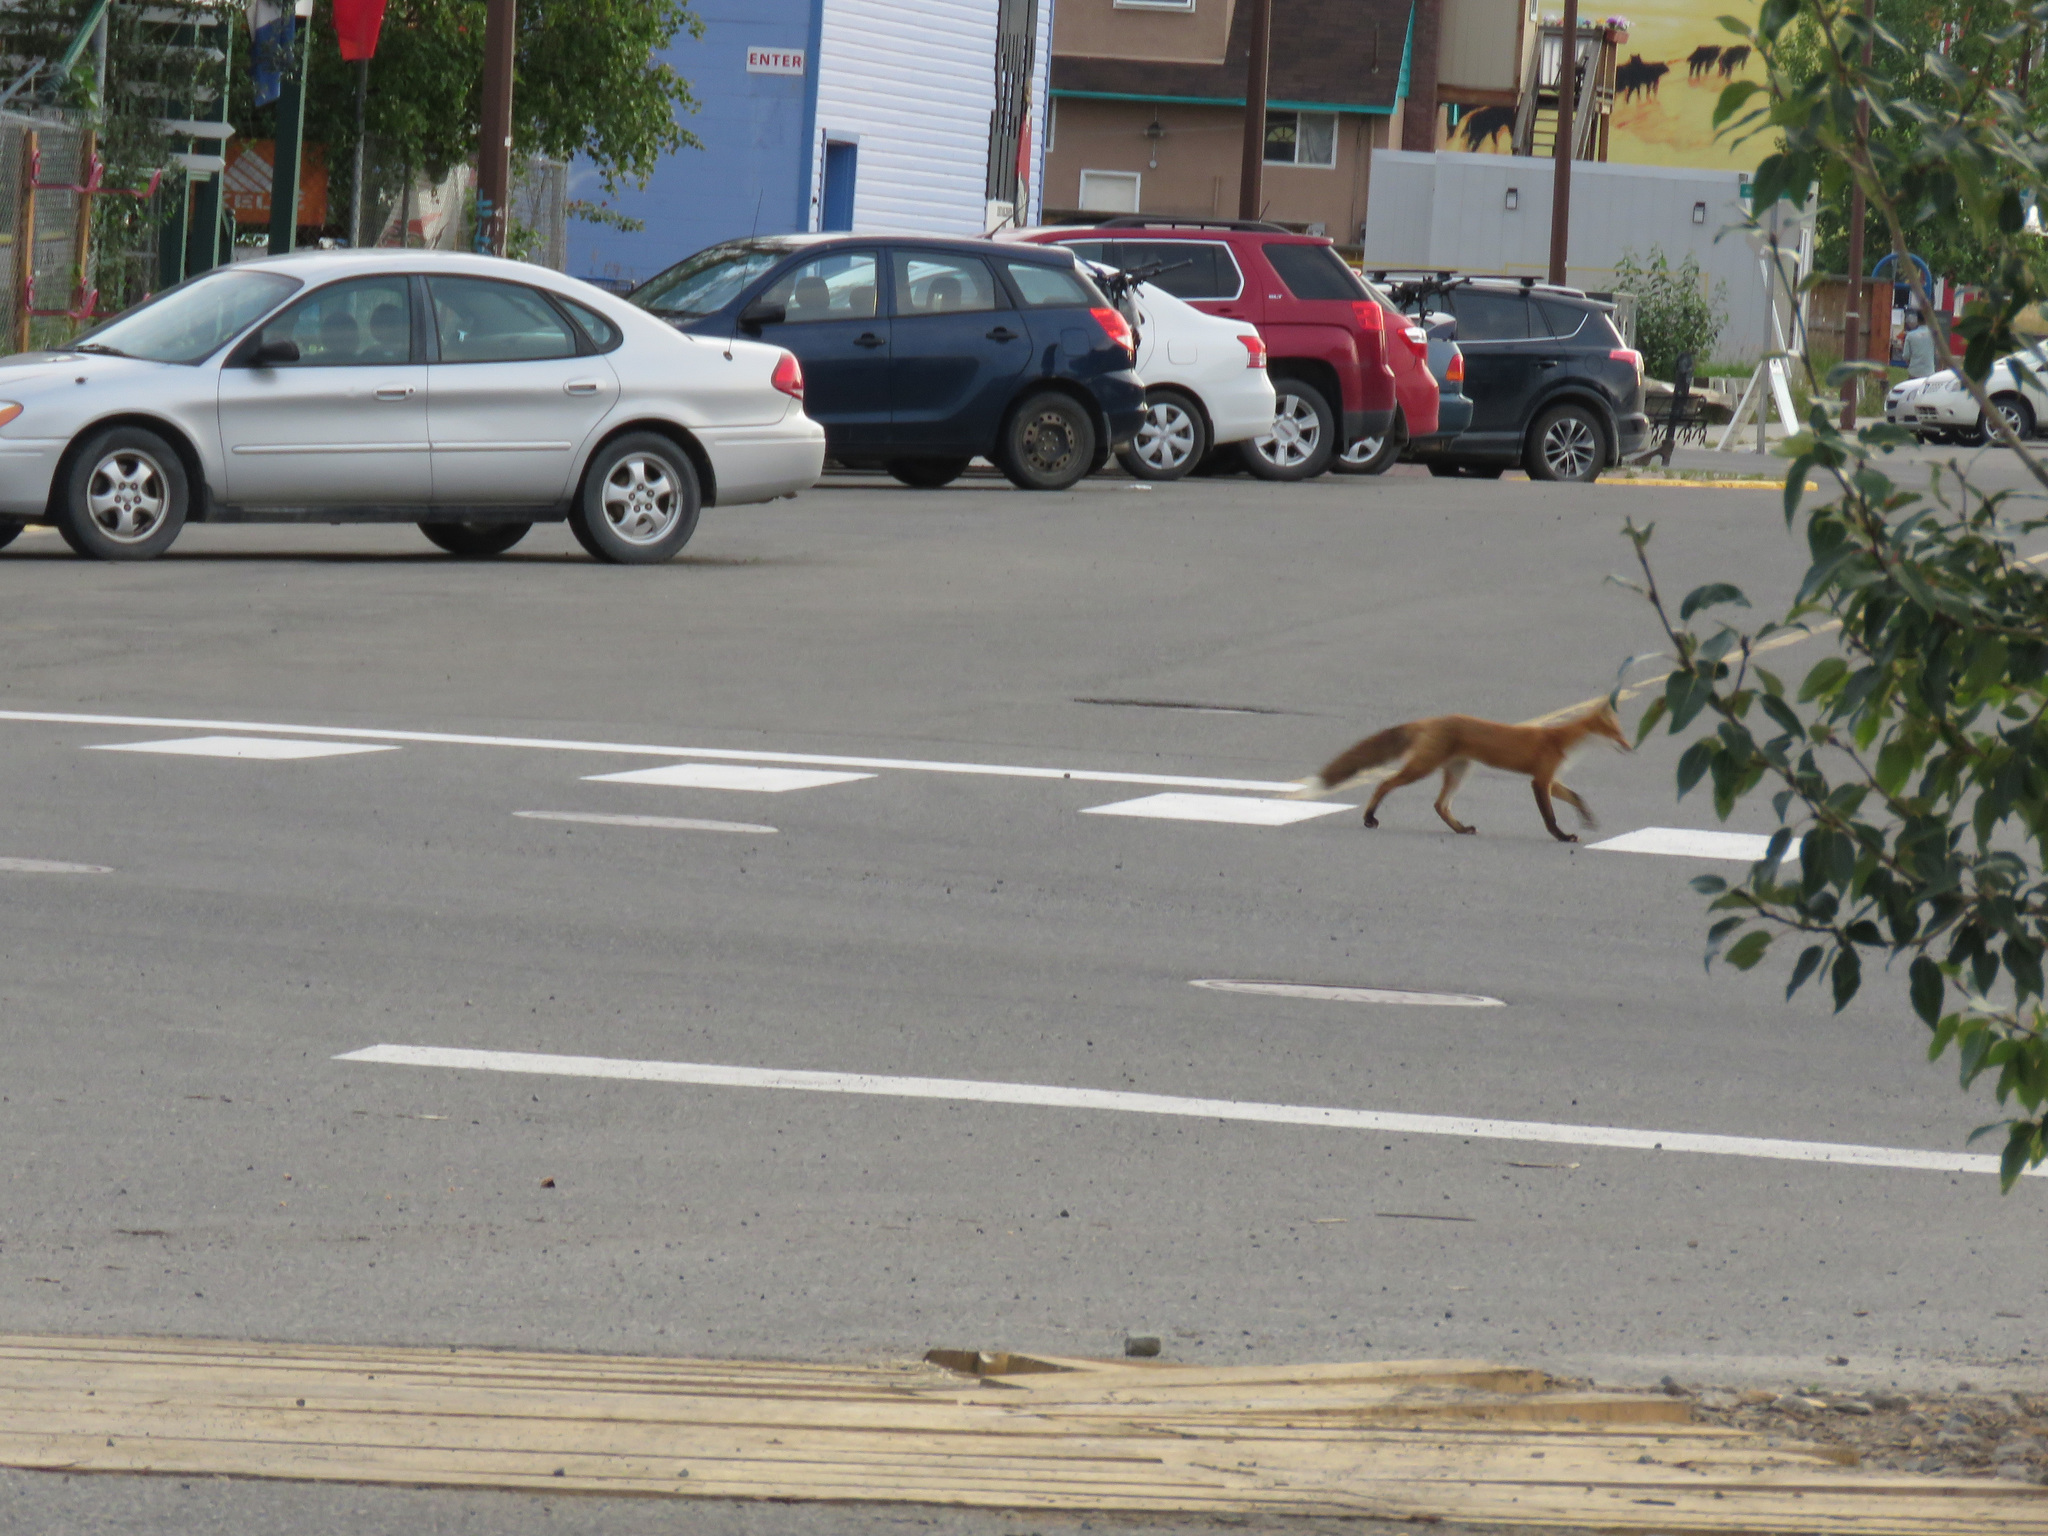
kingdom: Animalia
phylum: Chordata
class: Mammalia
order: Carnivora
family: Canidae
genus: Vulpes
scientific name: Vulpes vulpes
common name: Red fox
